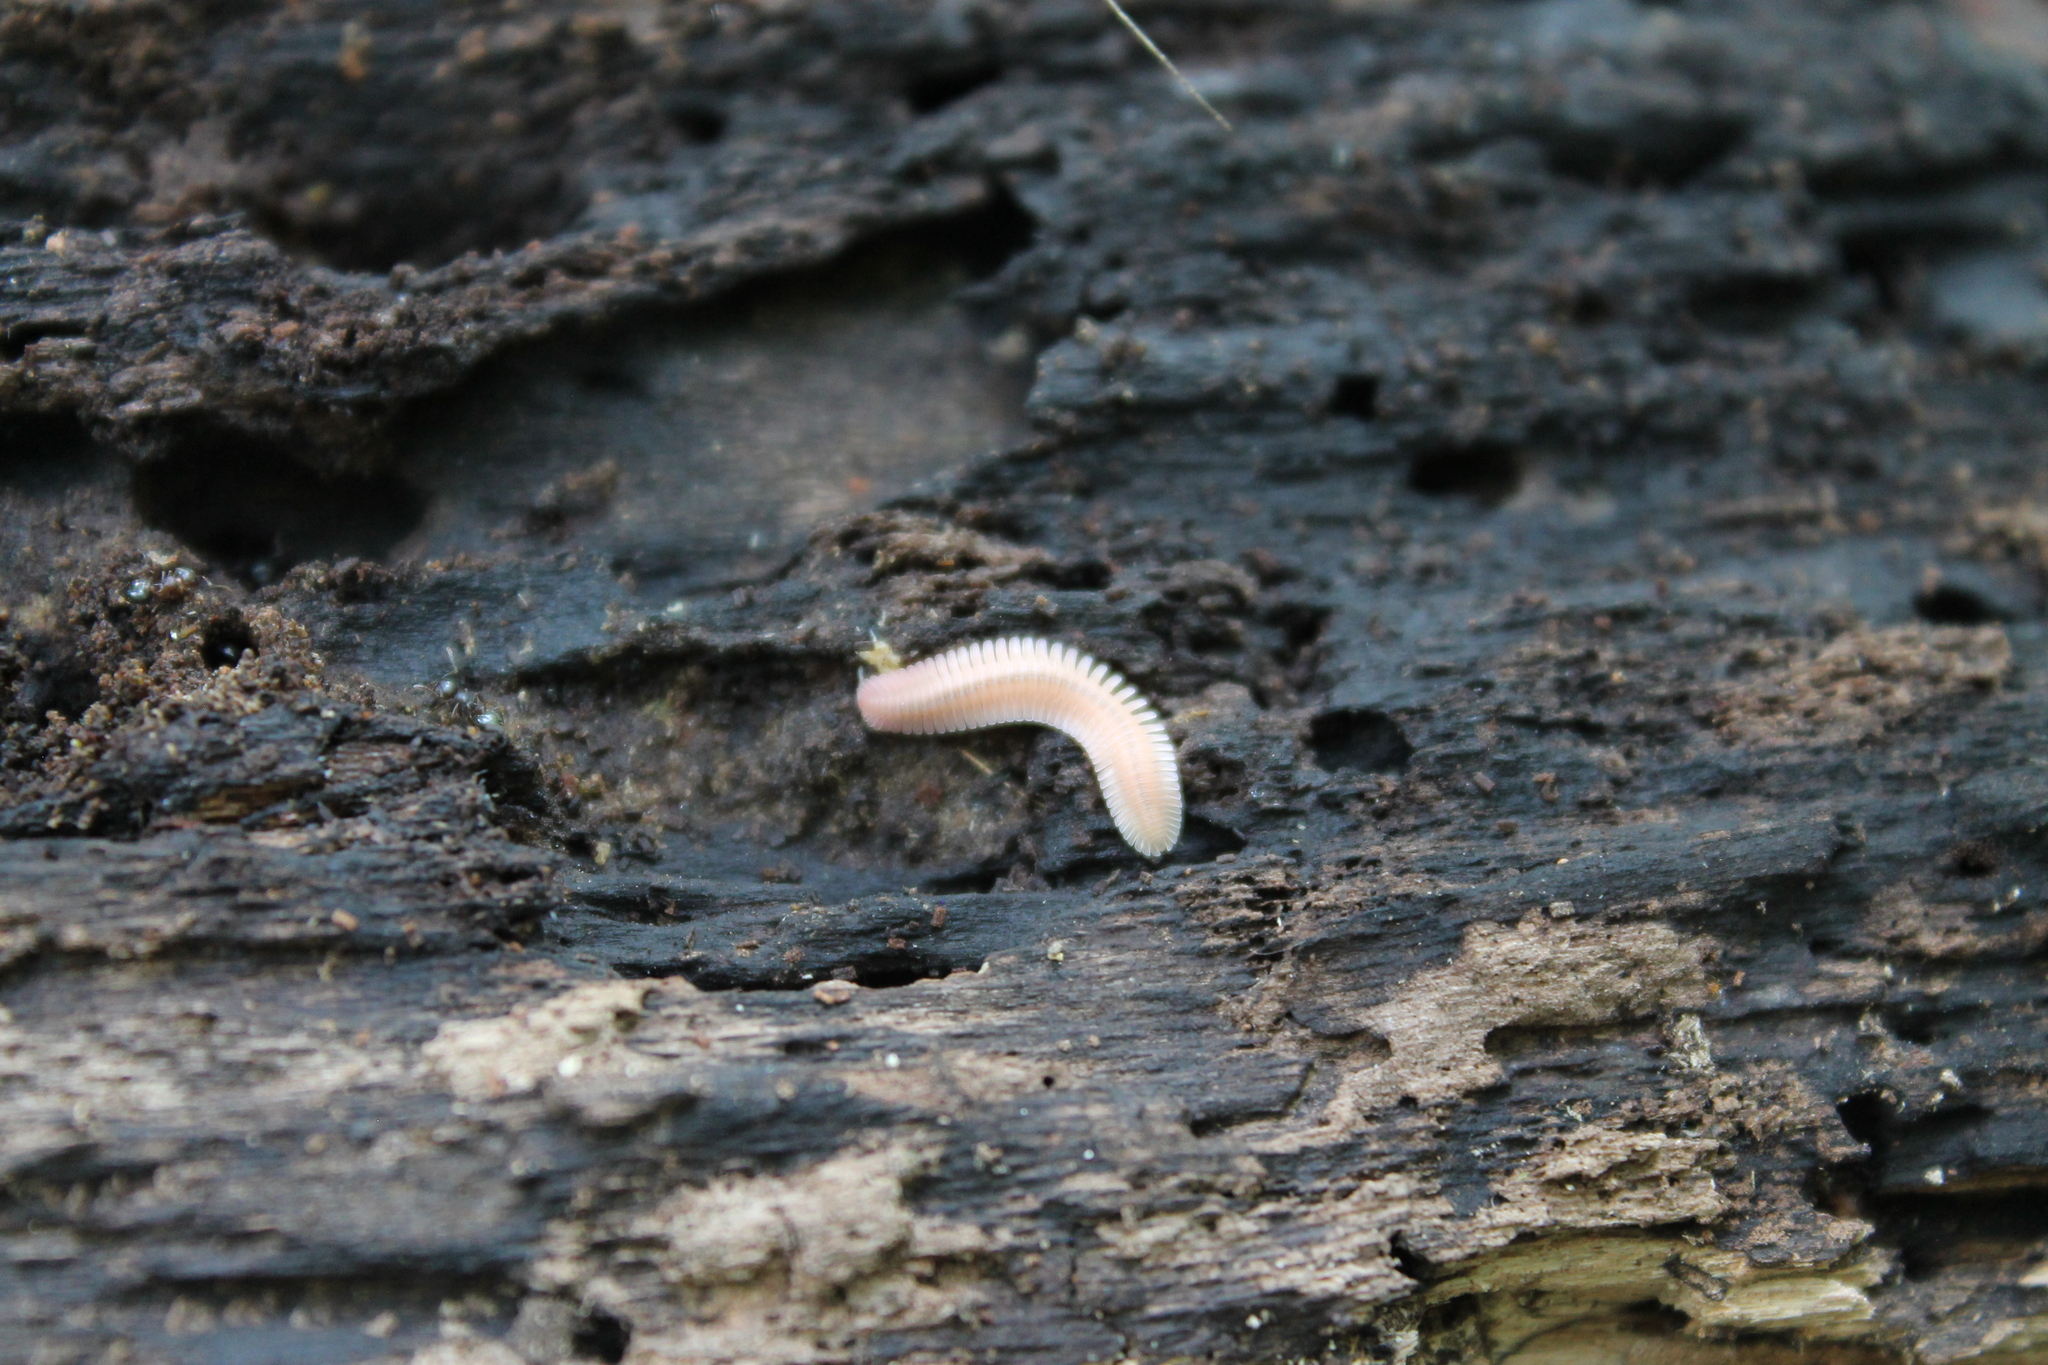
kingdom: Animalia
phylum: Arthropoda
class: Diplopoda
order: Platydesmida
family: Andrognathidae
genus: Brachycybe
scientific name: Brachycybe lecontii
